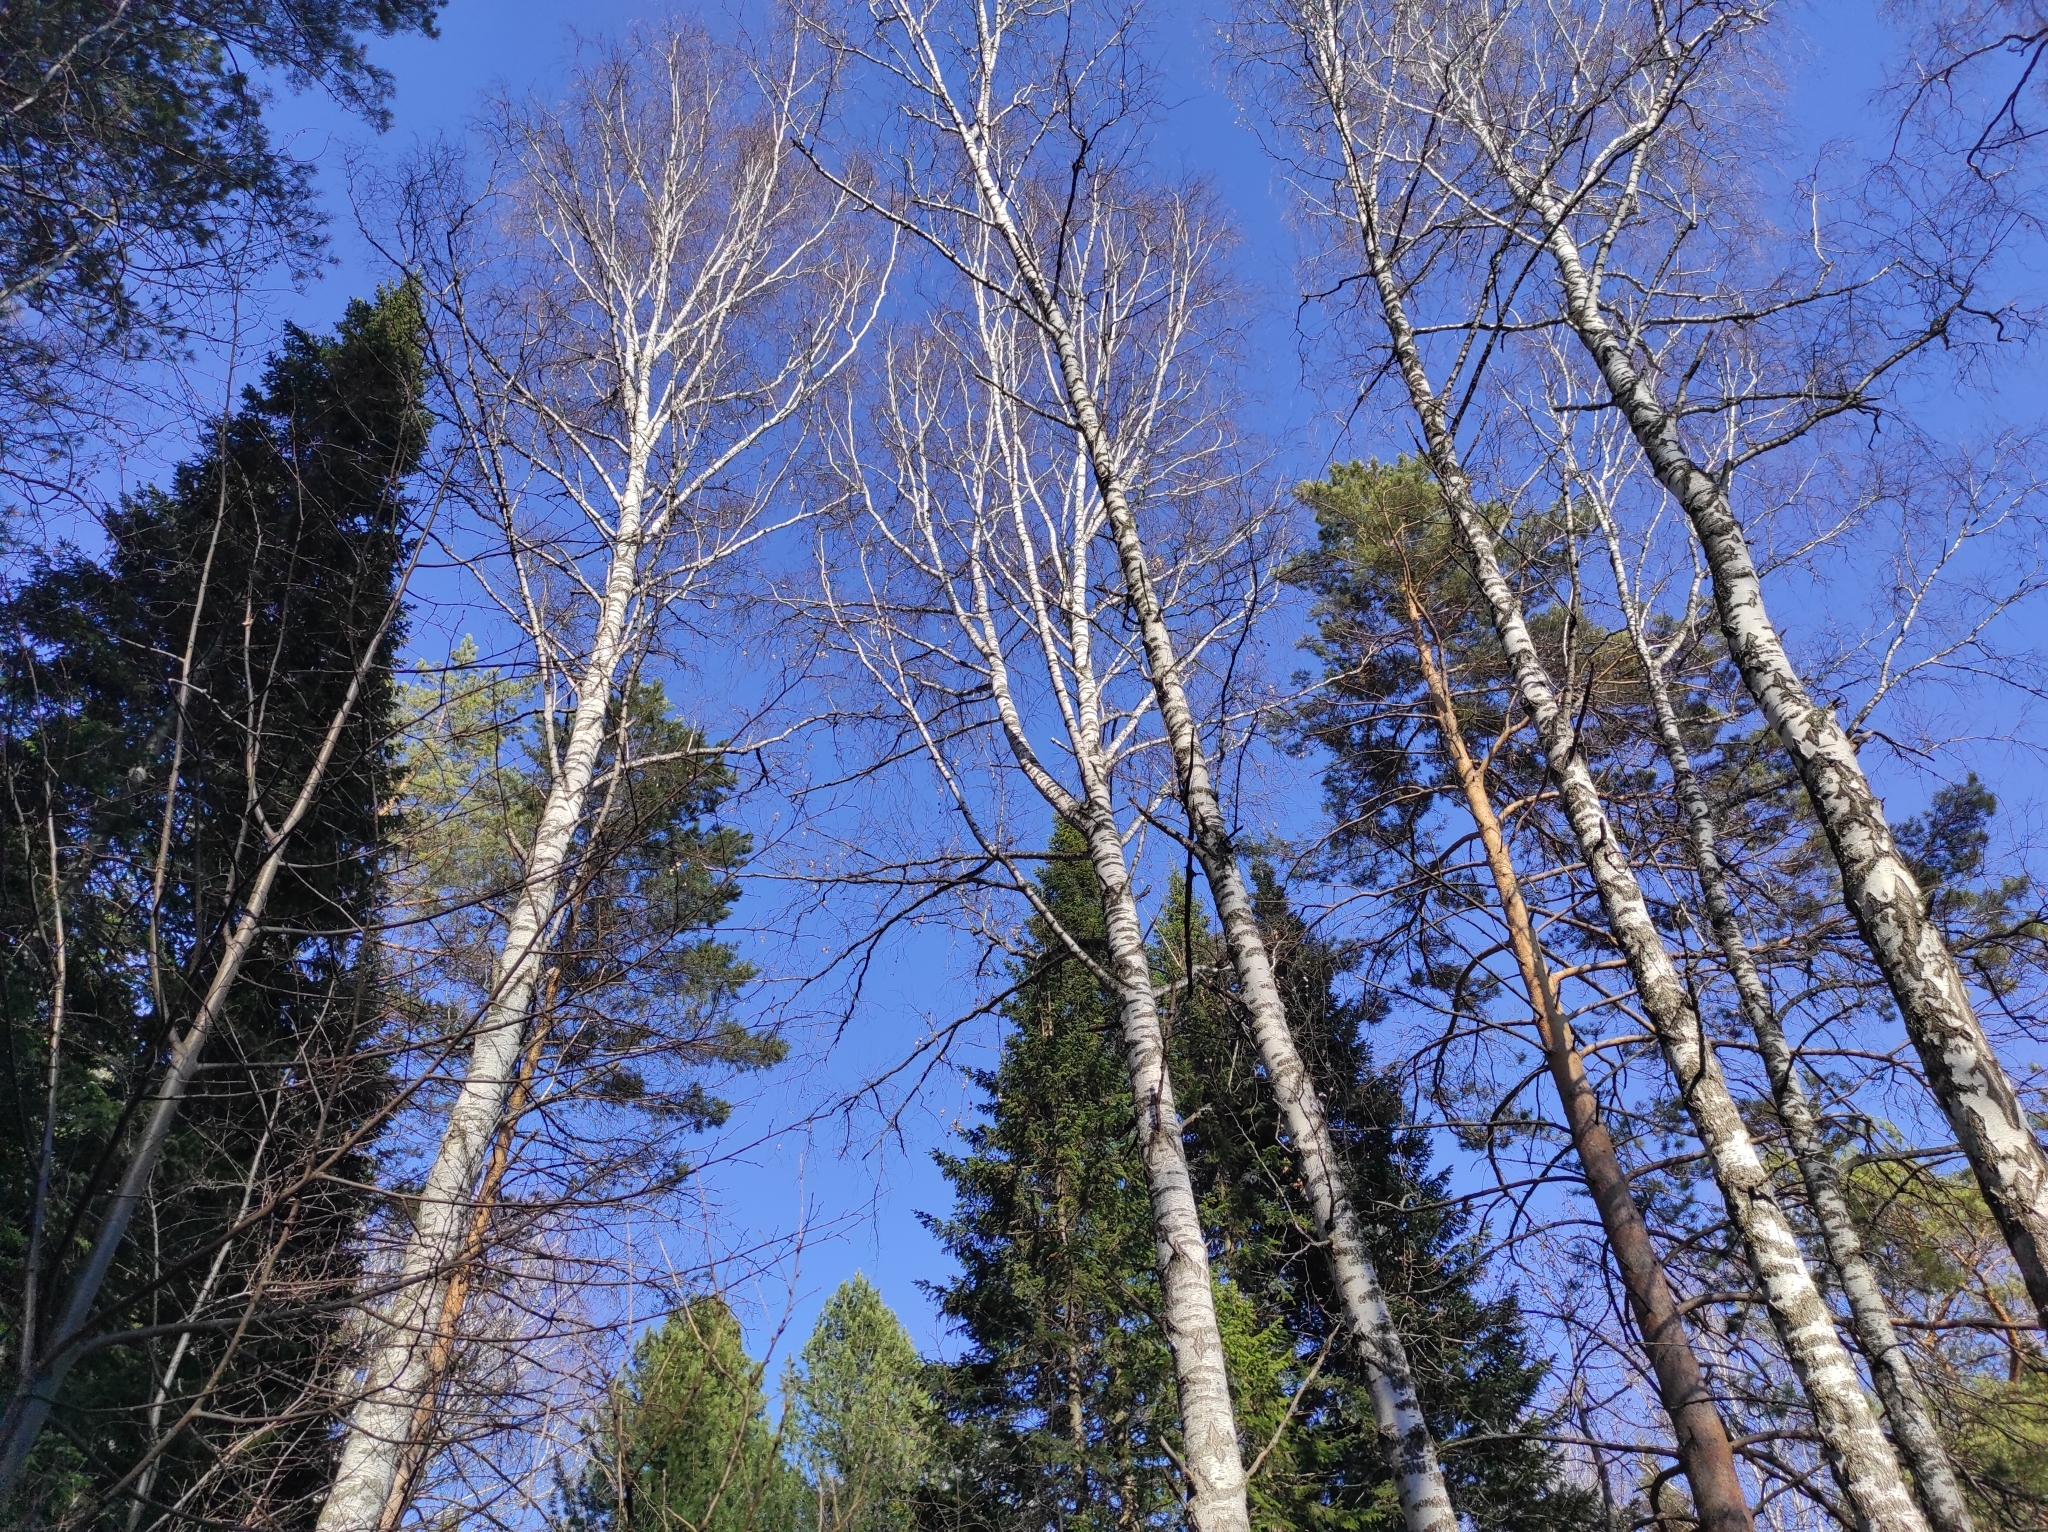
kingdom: Animalia
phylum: Chordata
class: Aves
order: Passeriformes
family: Turdidae
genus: Turdus
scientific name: Turdus philomelos
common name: Song thrush
